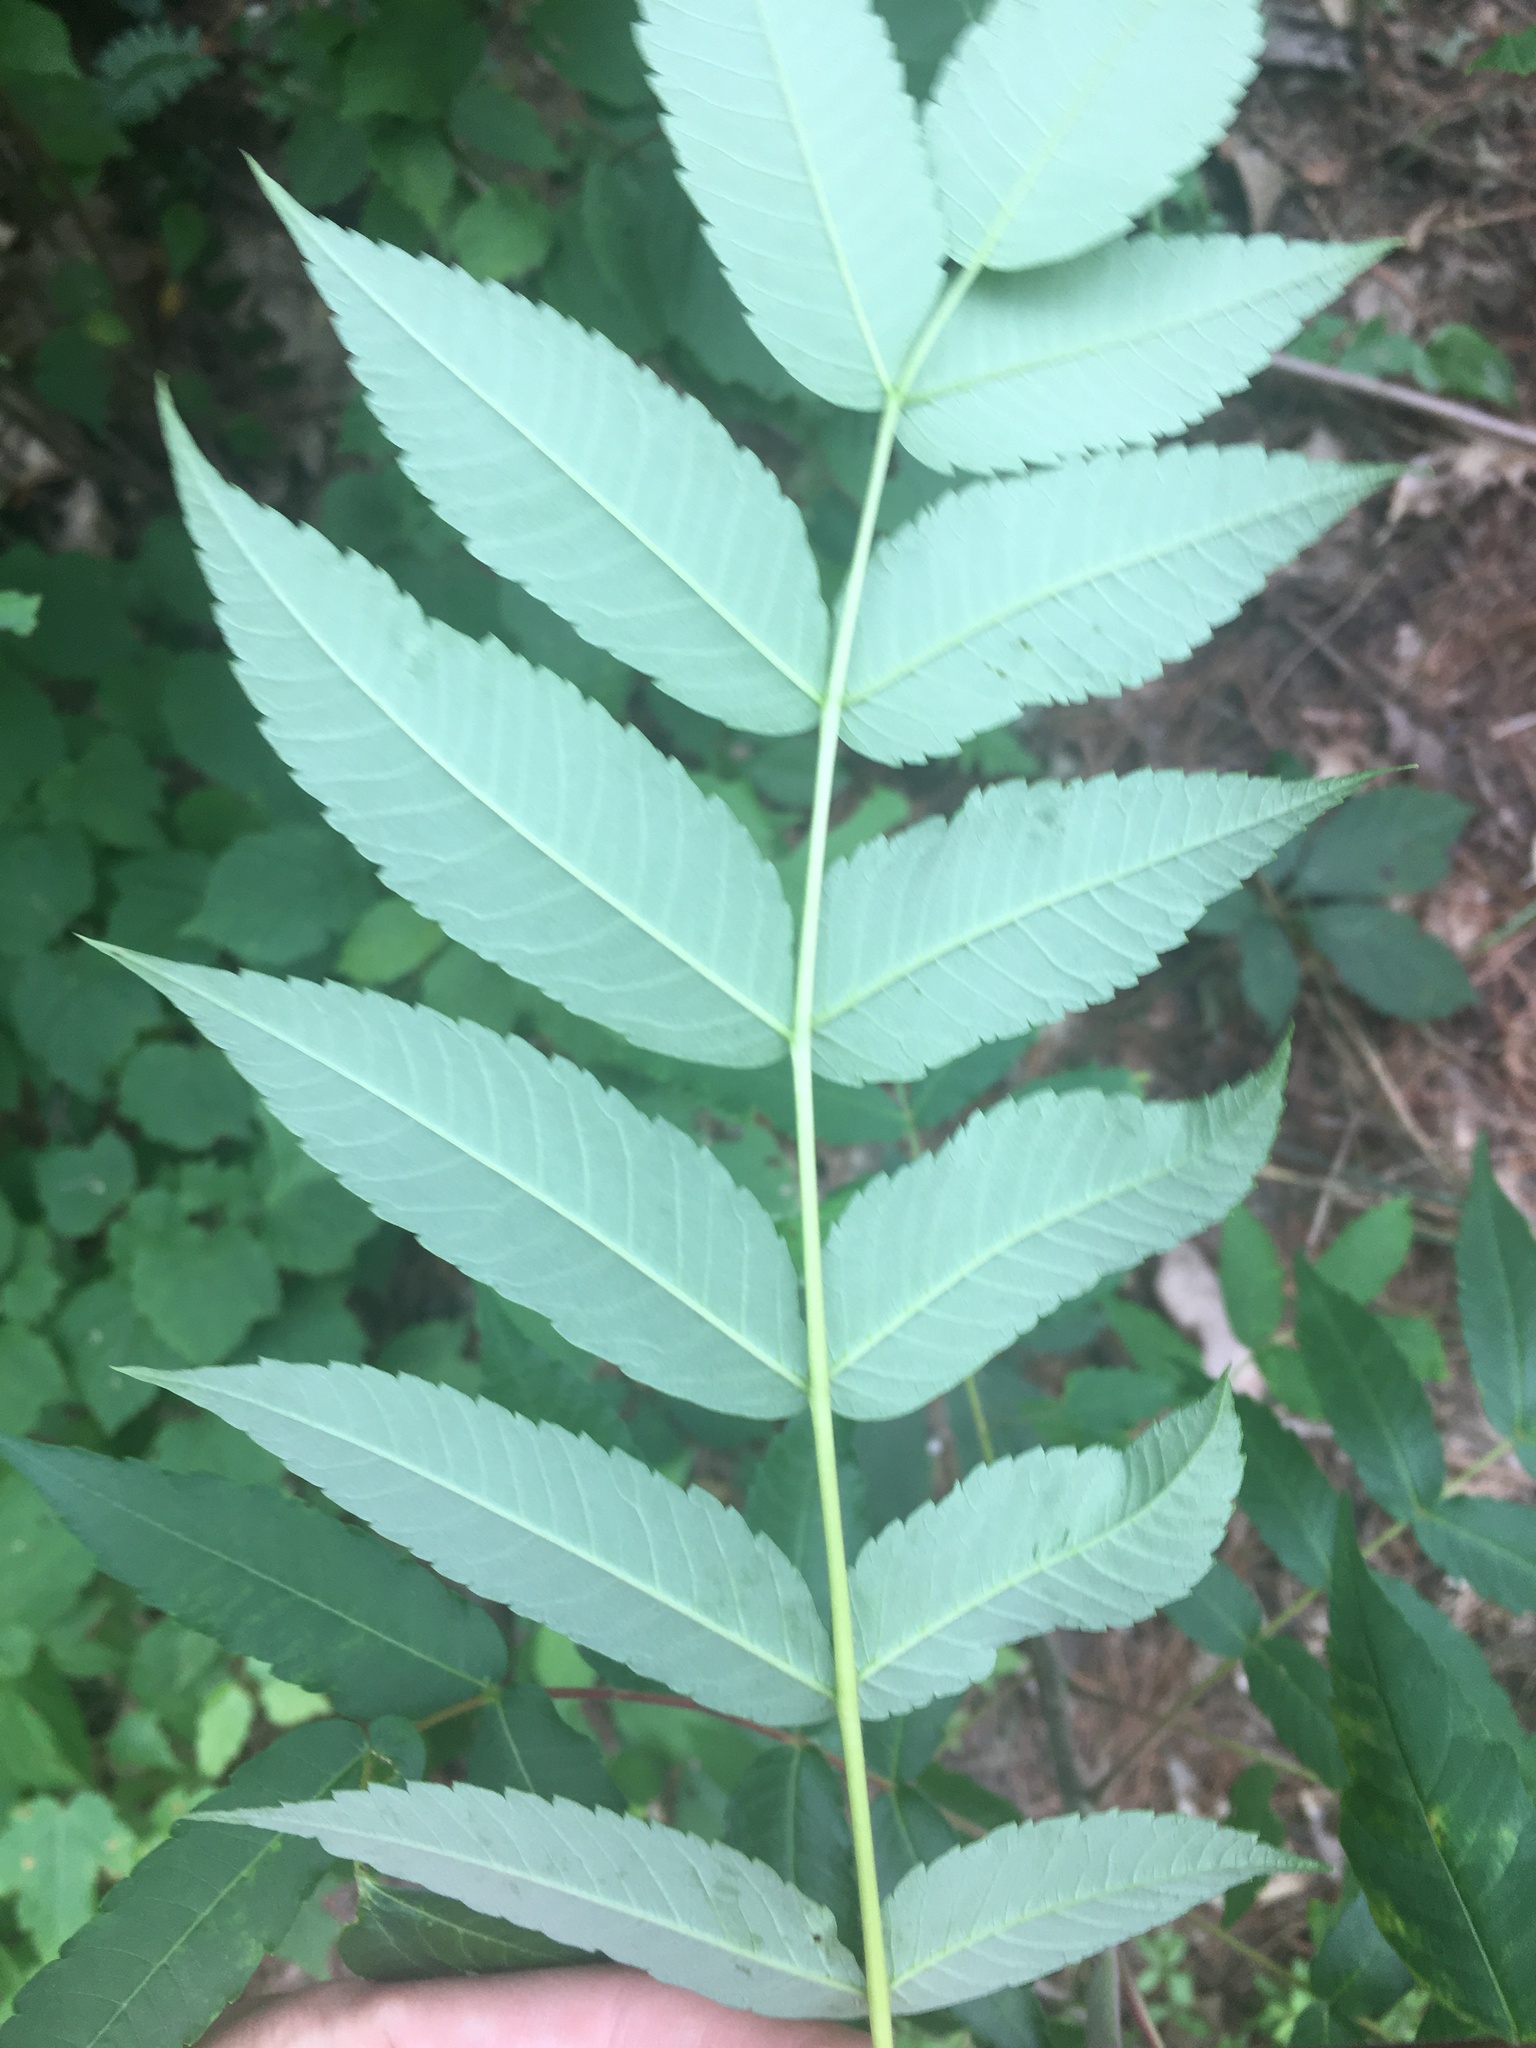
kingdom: Plantae
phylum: Tracheophyta
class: Magnoliopsida
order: Sapindales
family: Anacardiaceae
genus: Rhus
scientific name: Rhus typhina
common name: Staghorn sumac
